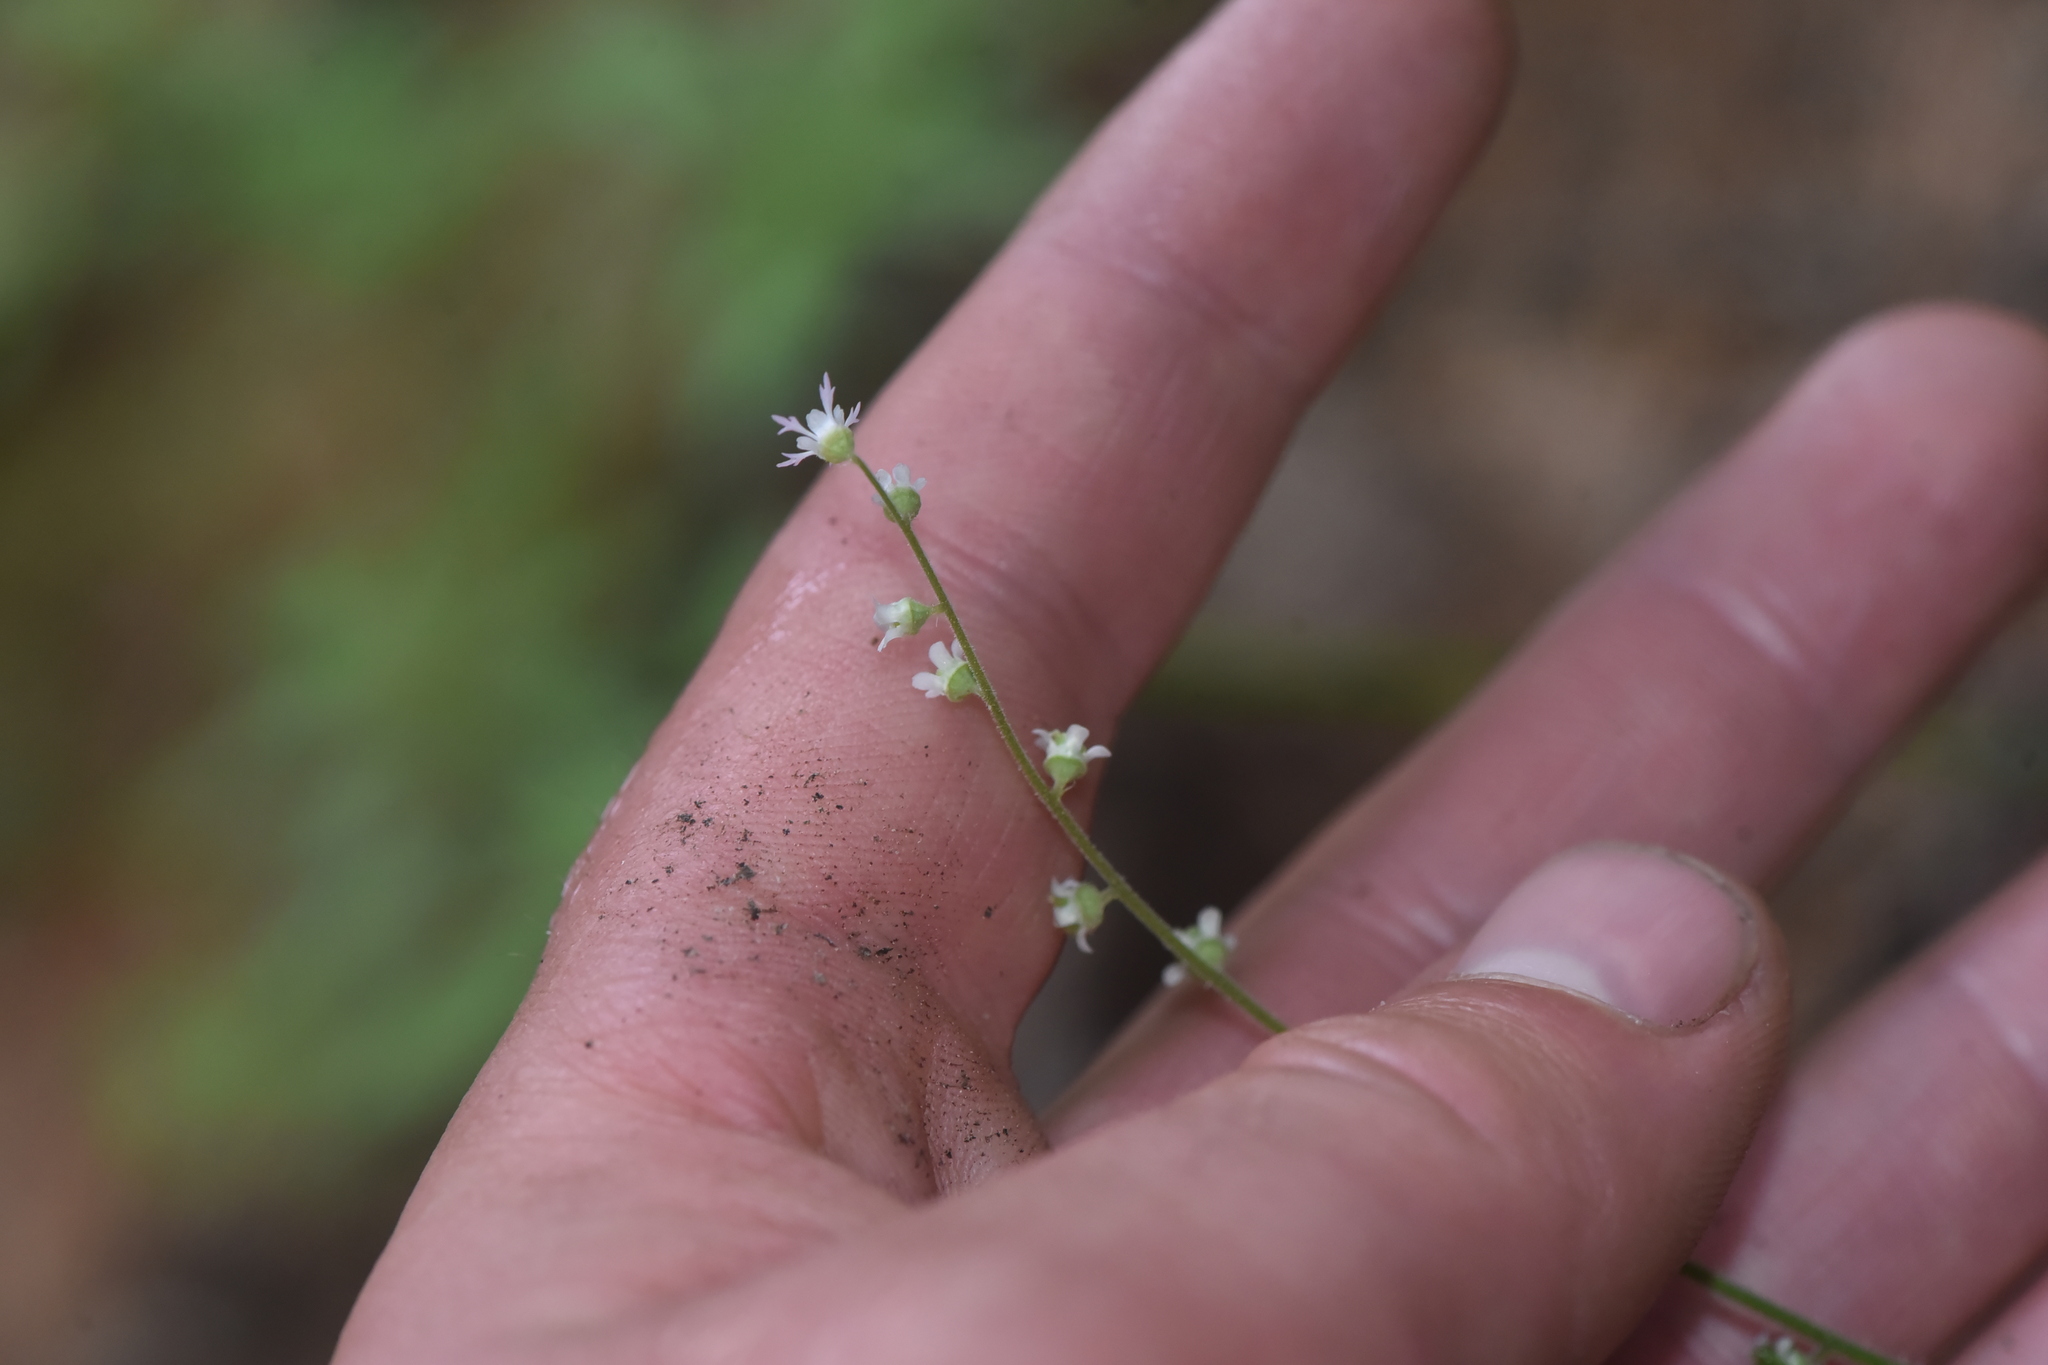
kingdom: Plantae
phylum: Tracheophyta
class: Magnoliopsida
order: Saxifragales
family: Saxifragaceae
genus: Ozomelis
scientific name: Ozomelis trifida
